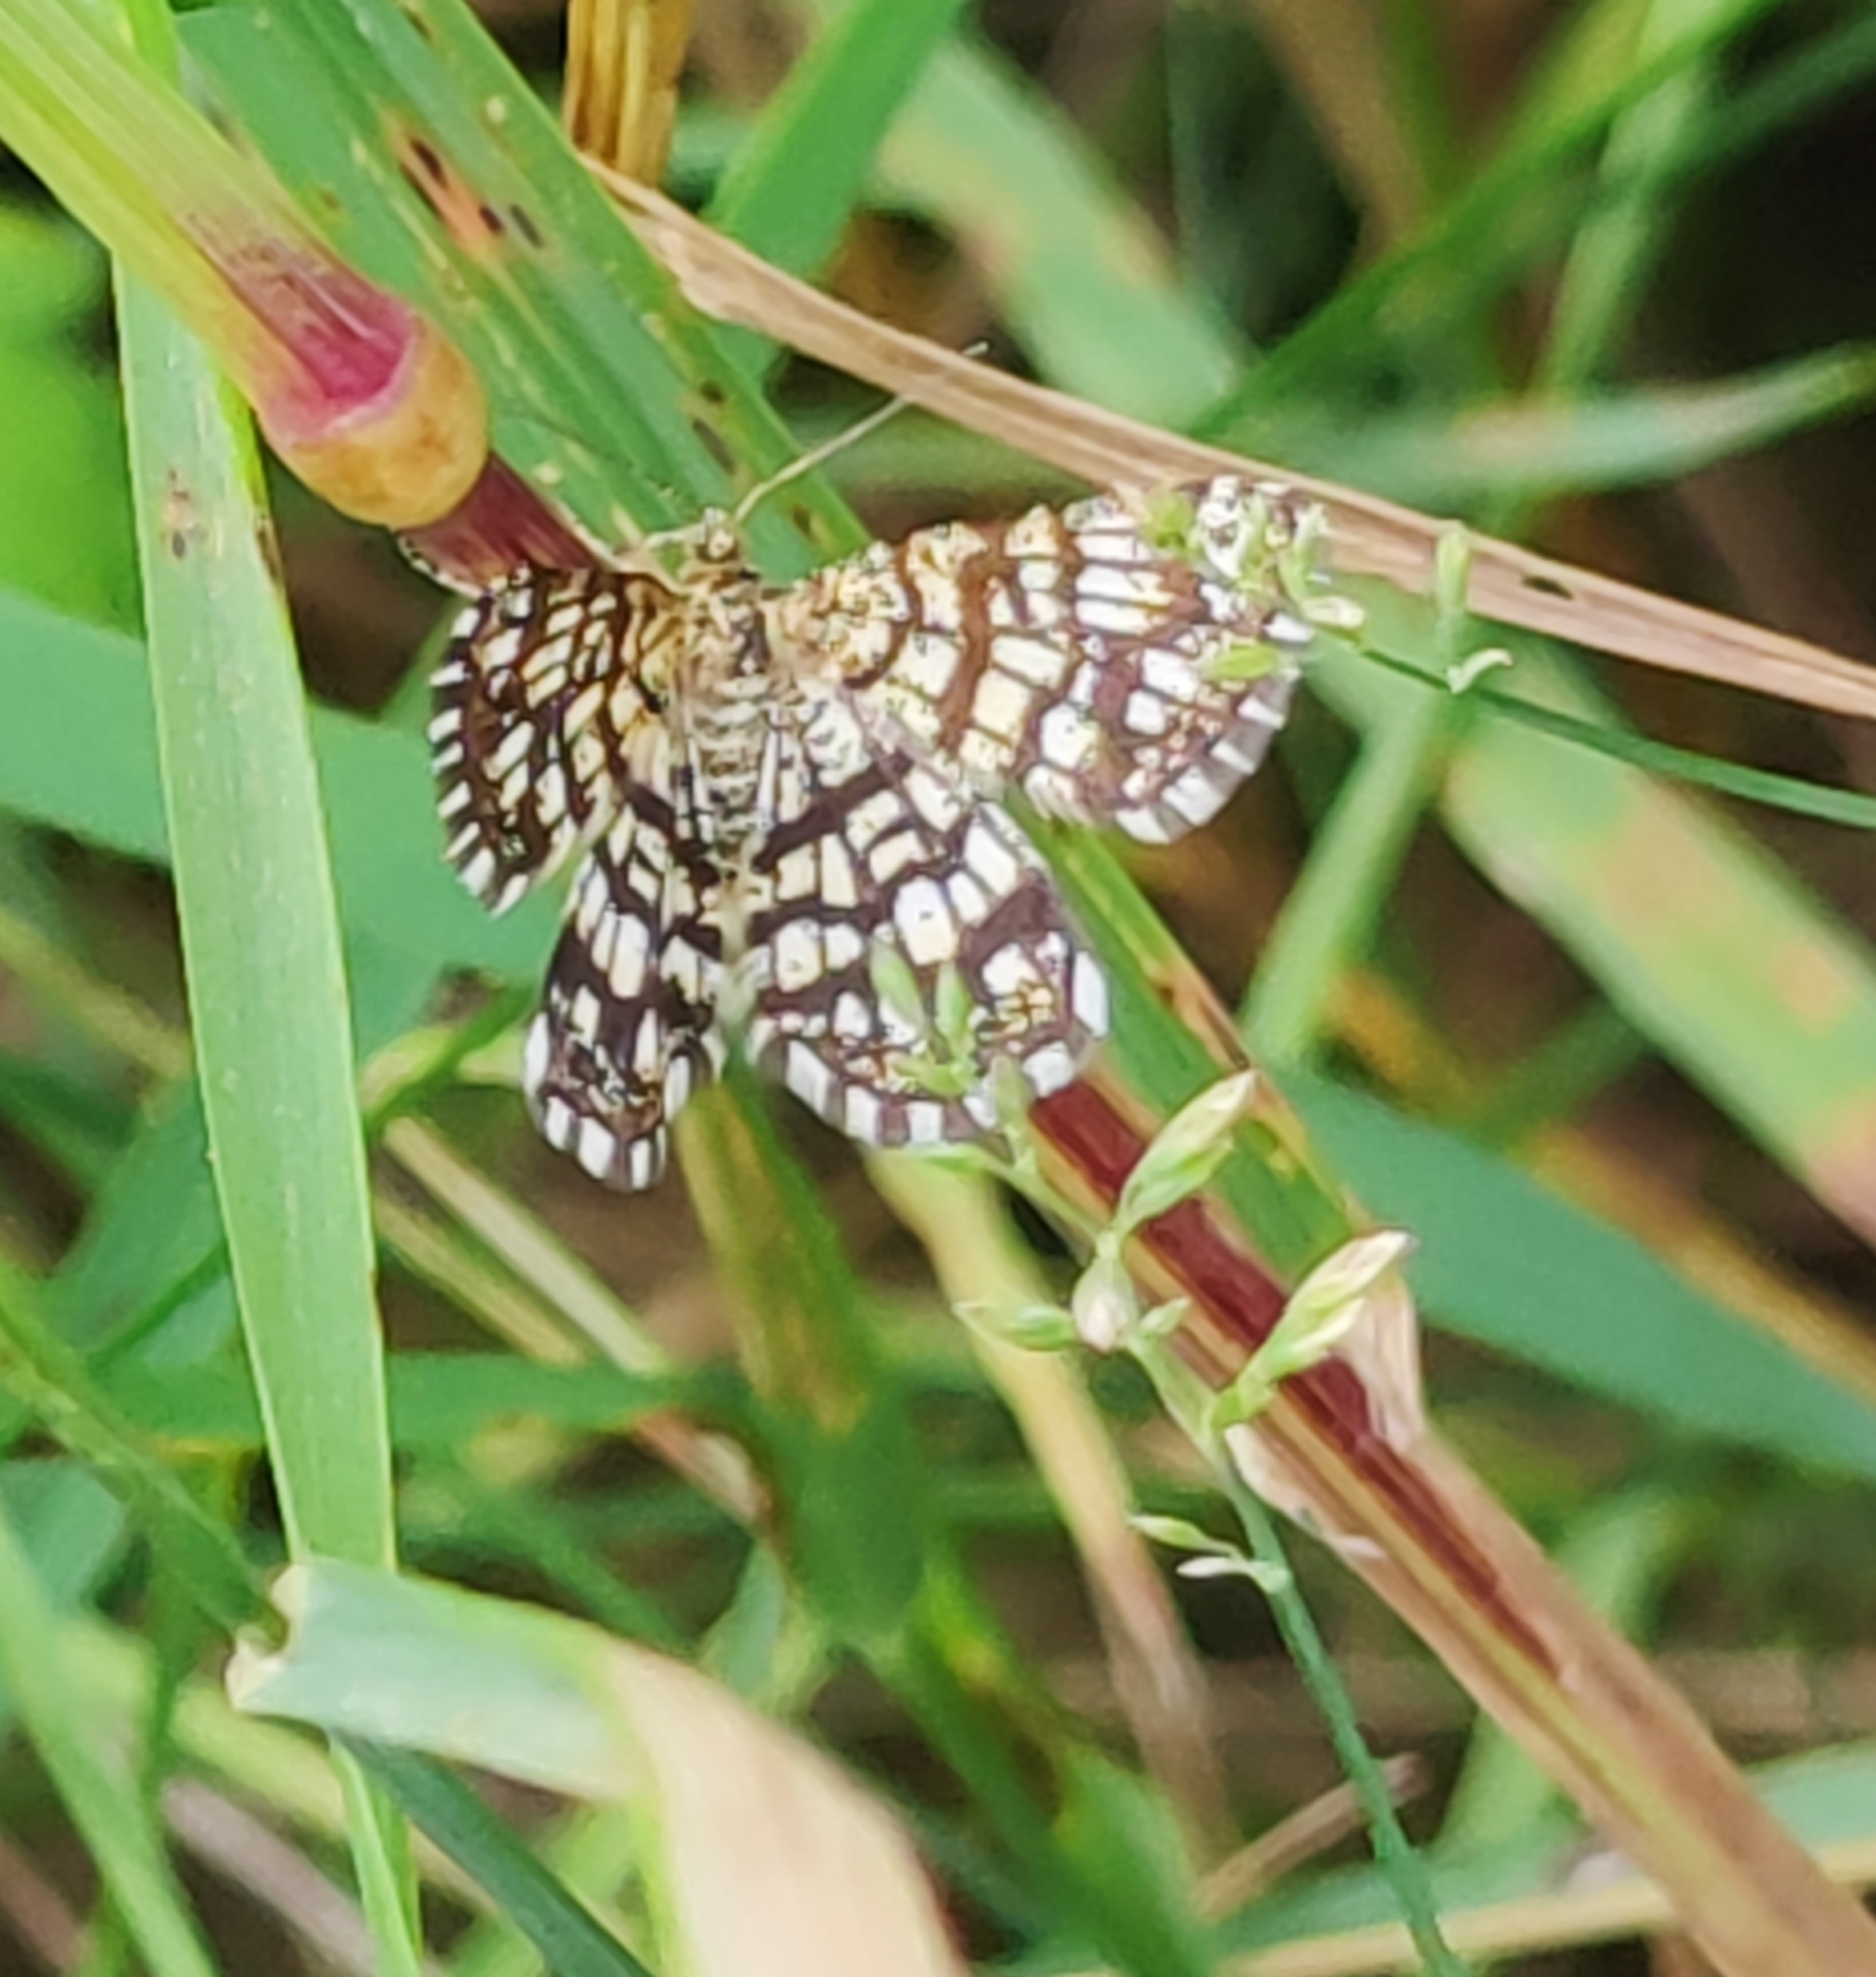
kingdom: Animalia
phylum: Arthropoda
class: Insecta
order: Lepidoptera
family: Geometridae
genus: Chiasmia
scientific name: Chiasmia clathrata
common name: Latticed heath
